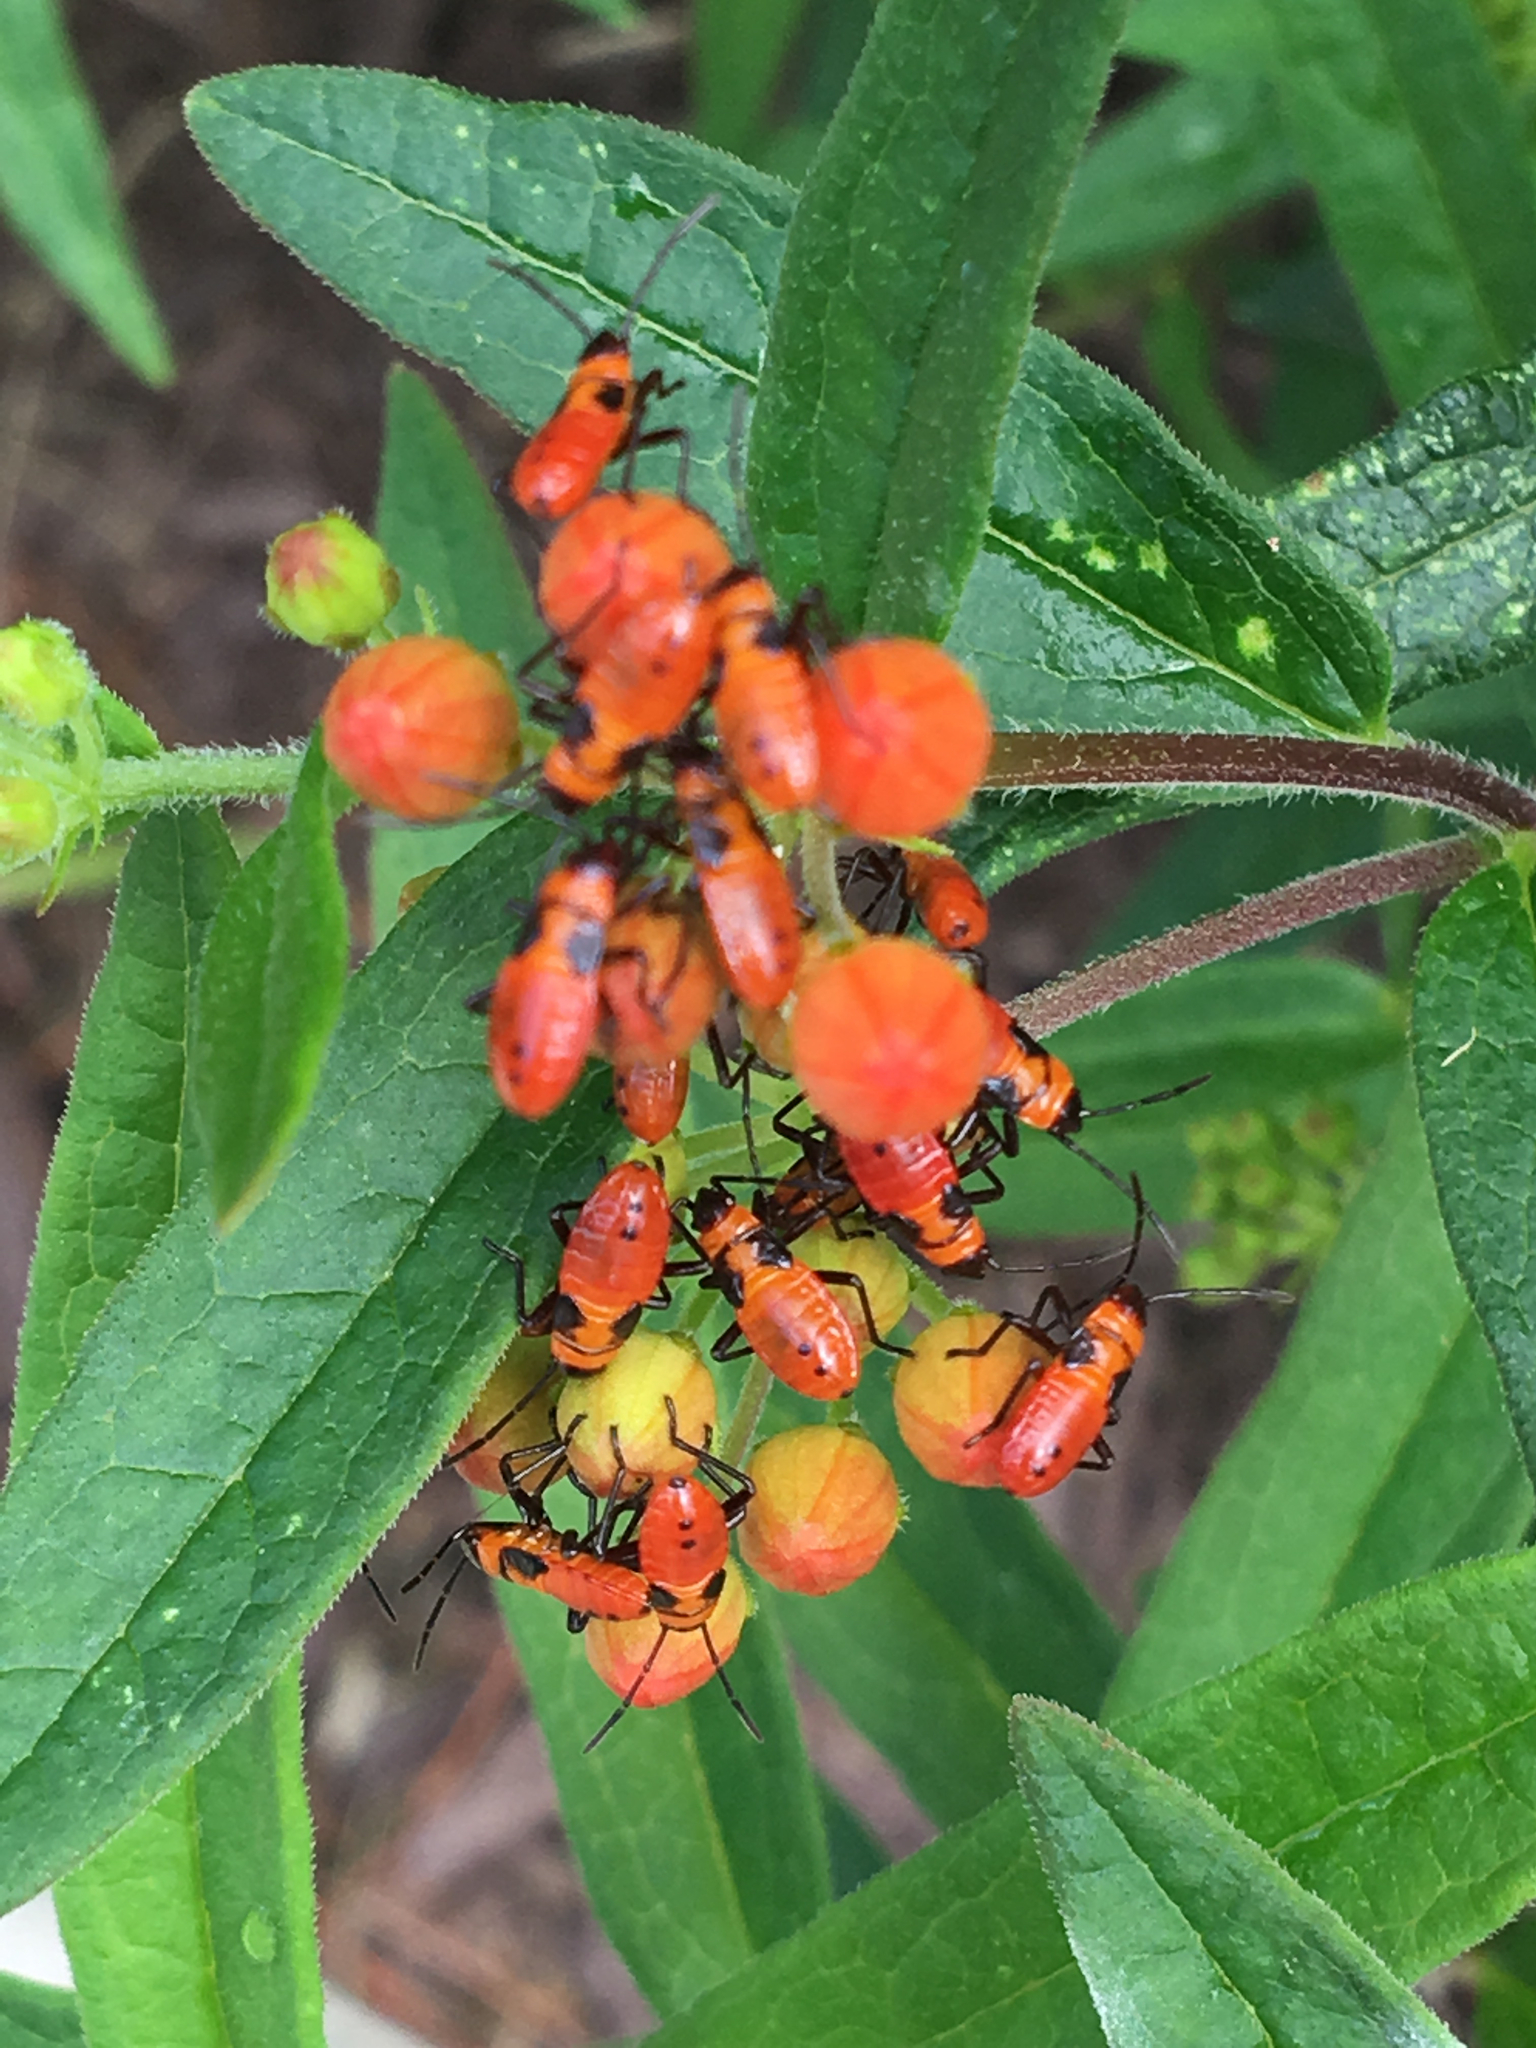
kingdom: Animalia
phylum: Arthropoda
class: Insecta
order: Hemiptera
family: Lygaeidae
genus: Oncopeltus
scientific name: Oncopeltus fasciatus
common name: Large milkweed bug
